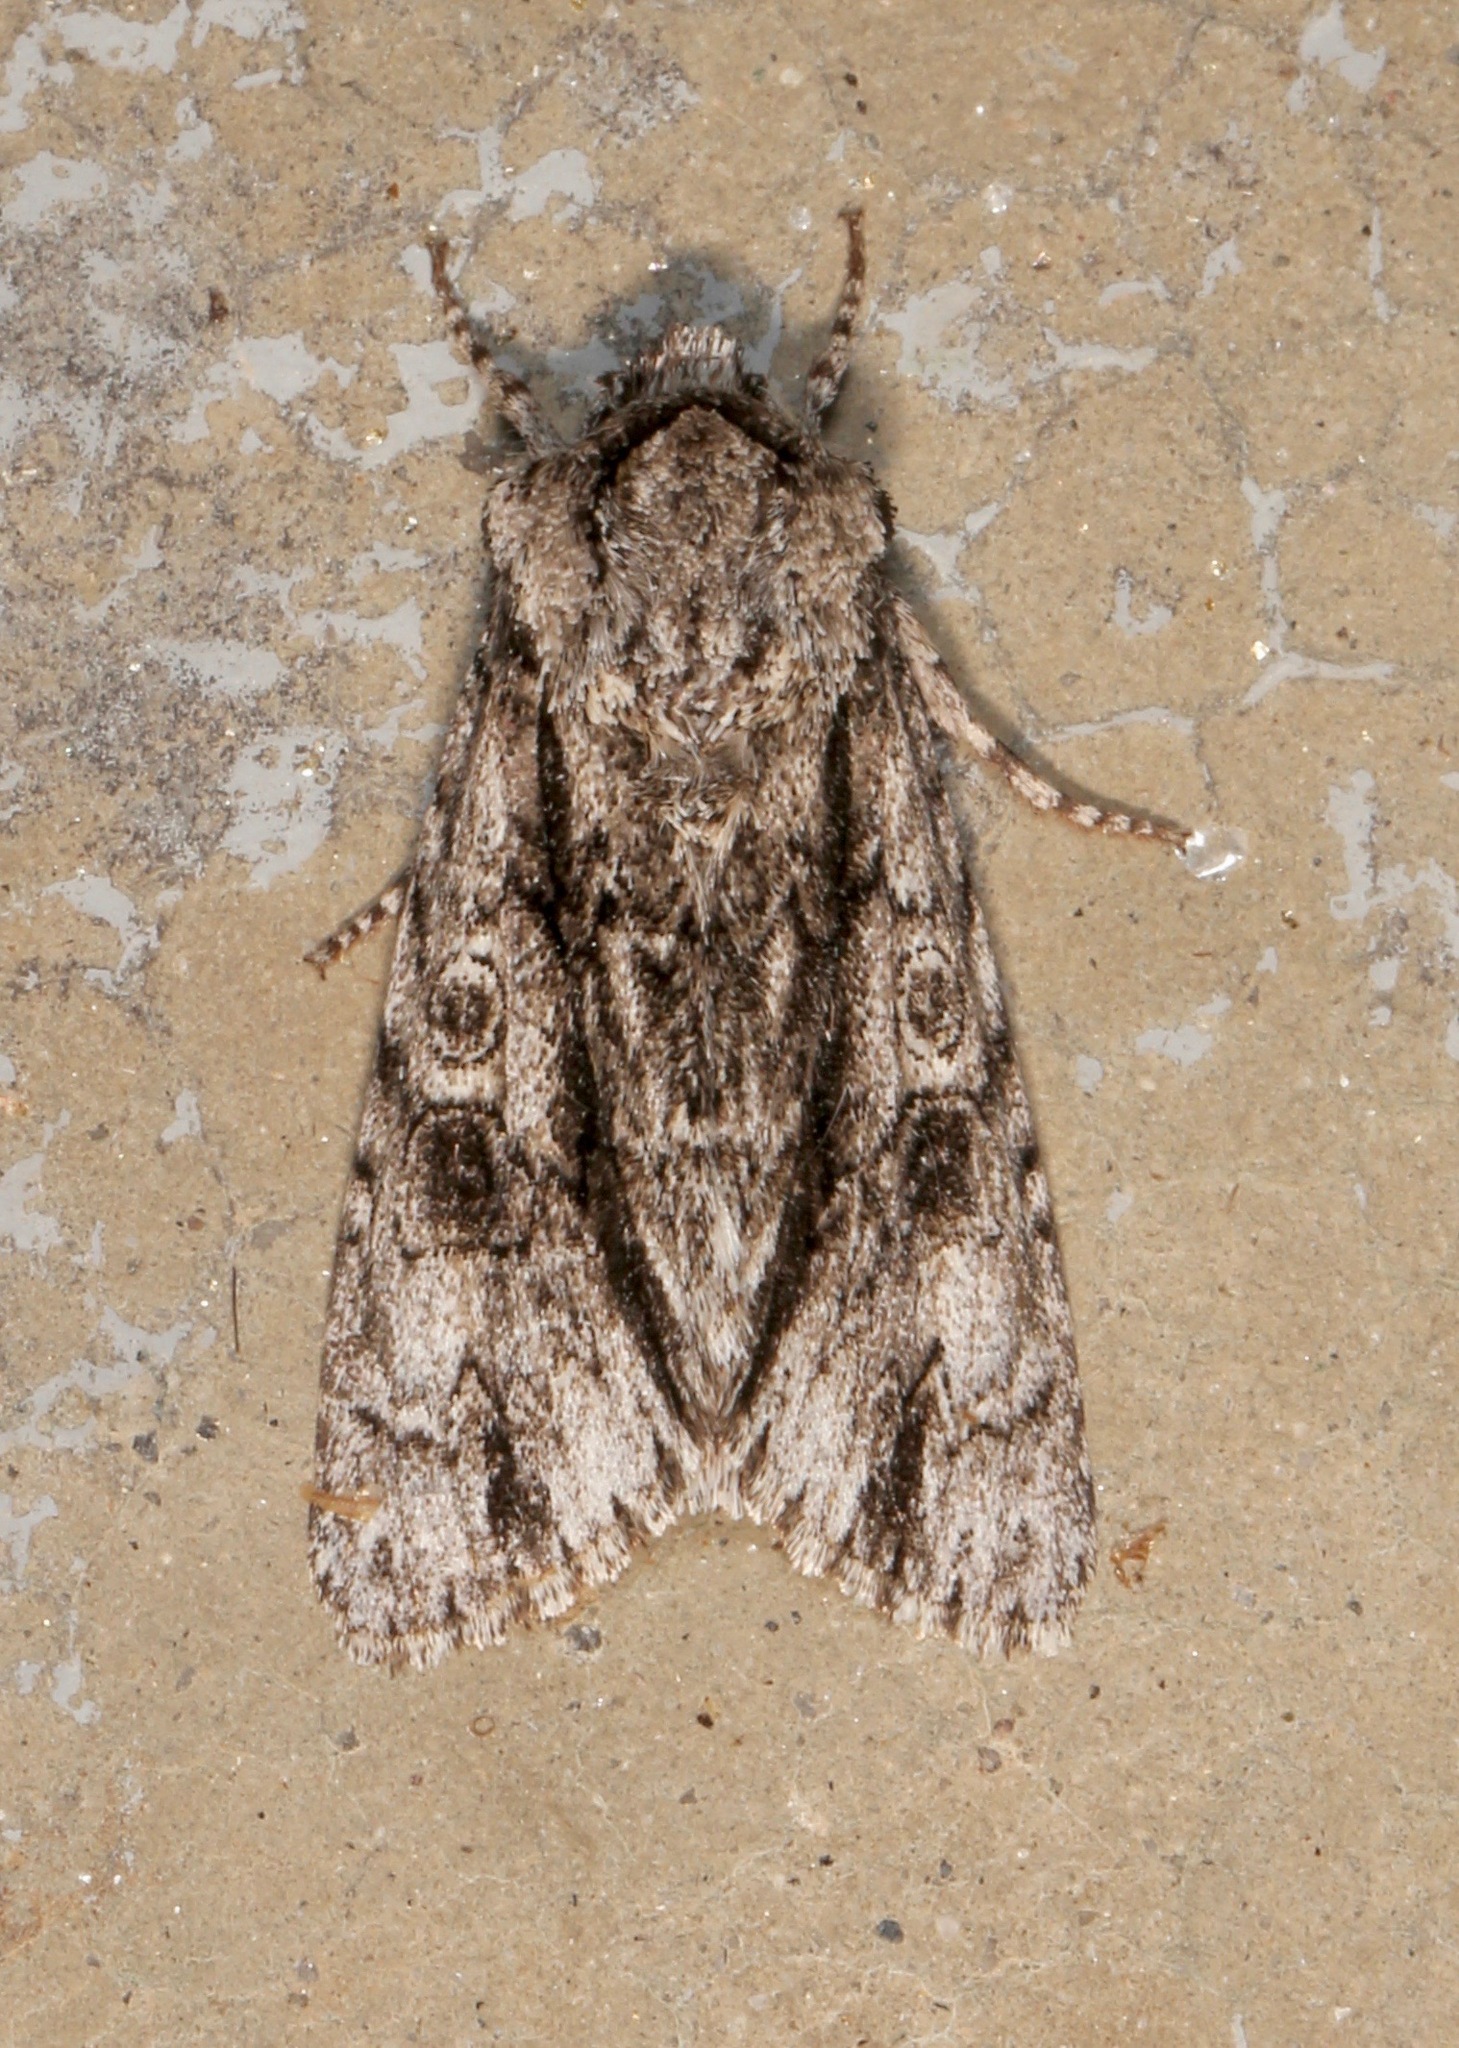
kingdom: Animalia
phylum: Arthropoda
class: Insecta
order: Lepidoptera
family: Noctuidae
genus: Acronicta
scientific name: Acronicta atristrigatus
